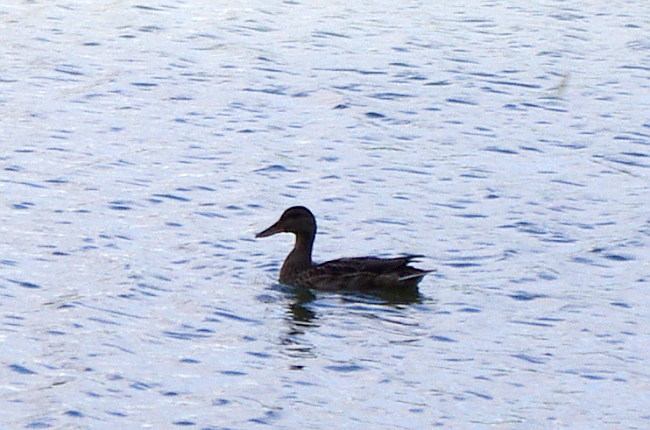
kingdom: Animalia
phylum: Chordata
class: Aves
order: Anseriformes
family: Anatidae
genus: Anas
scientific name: Anas platyrhynchos
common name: Mallard
